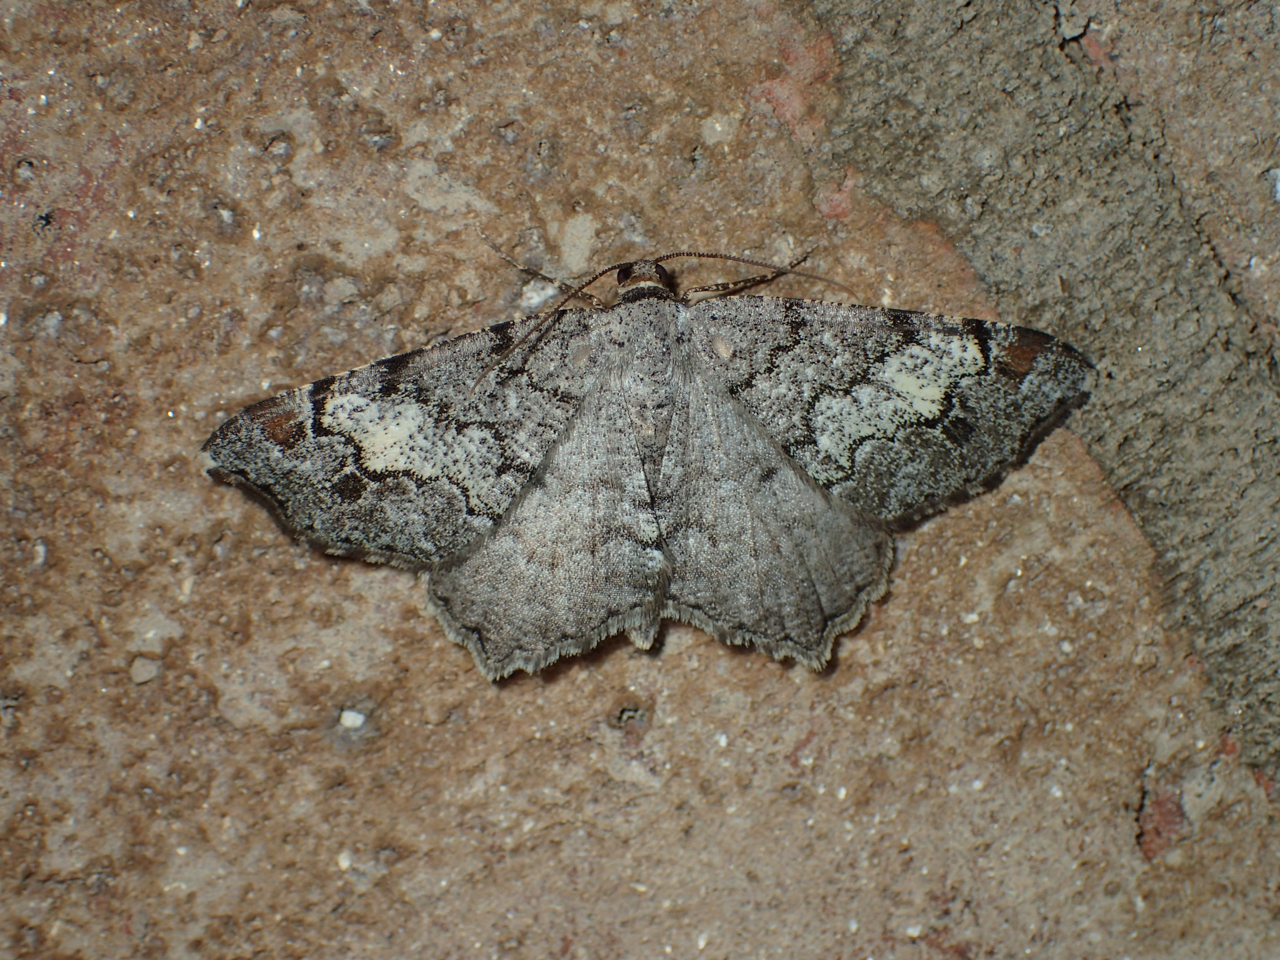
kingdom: Animalia
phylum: Arthropoda
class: Insecta
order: Lepidoptera
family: Geometridae
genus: Macaria
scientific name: Macaria granitata
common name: Granite moth
